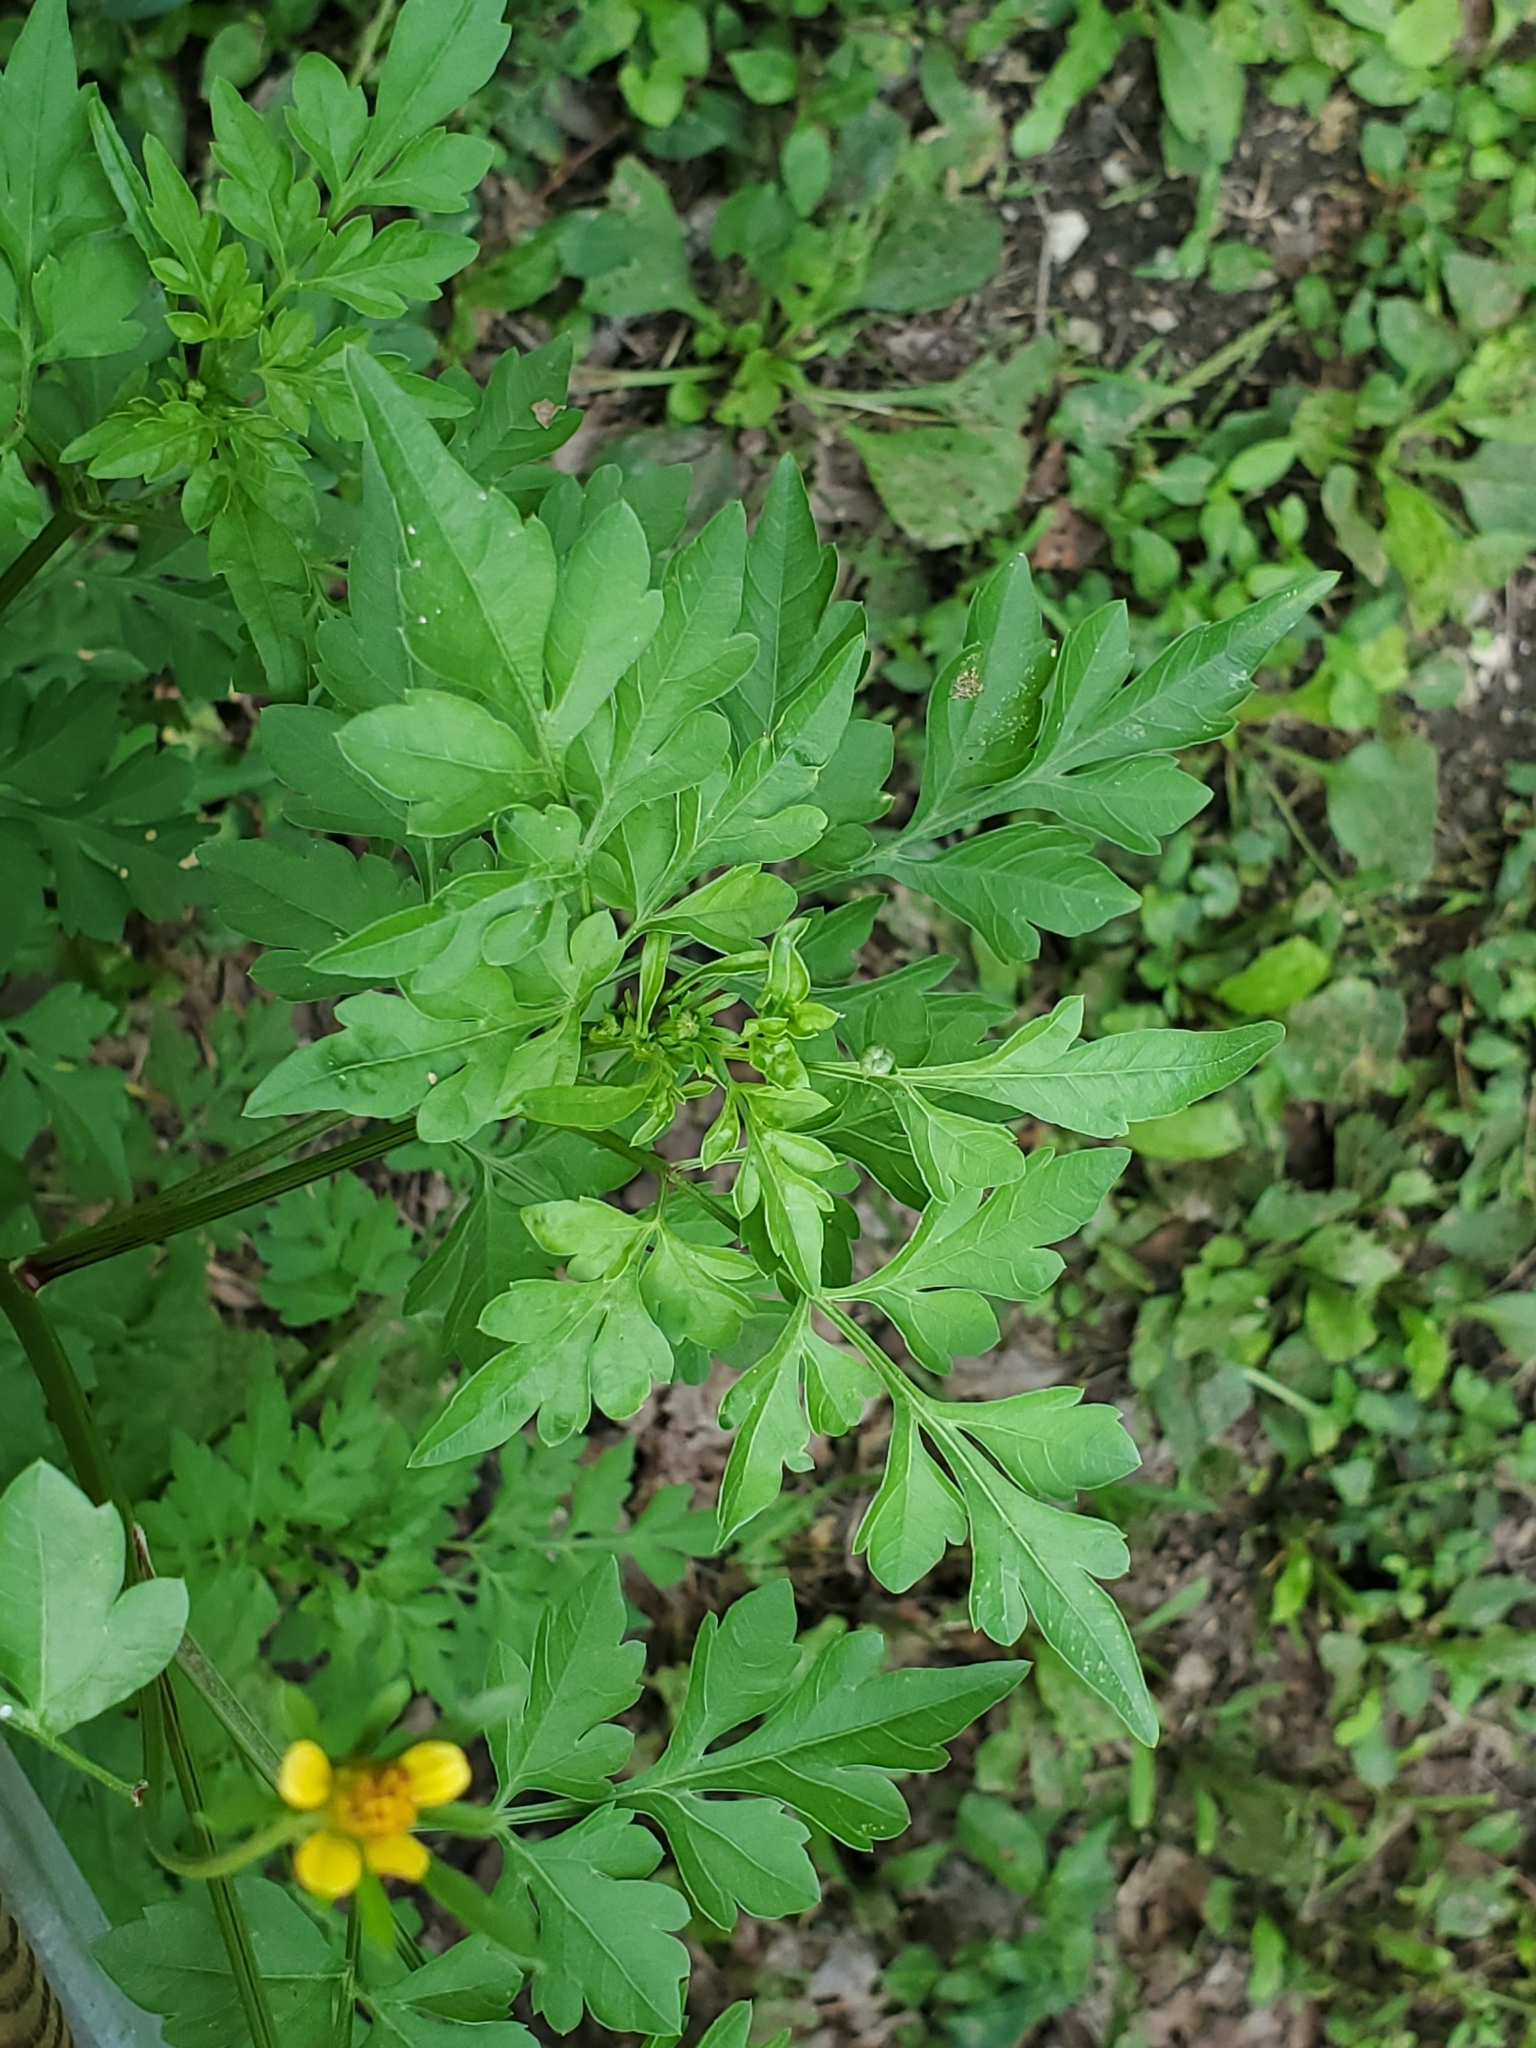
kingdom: Plantae
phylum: Tracheophyta
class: Magnoliopsida
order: Asterales
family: Asteraceae
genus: Bidens
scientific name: Bidens bipinnata
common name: Spanish-needles
